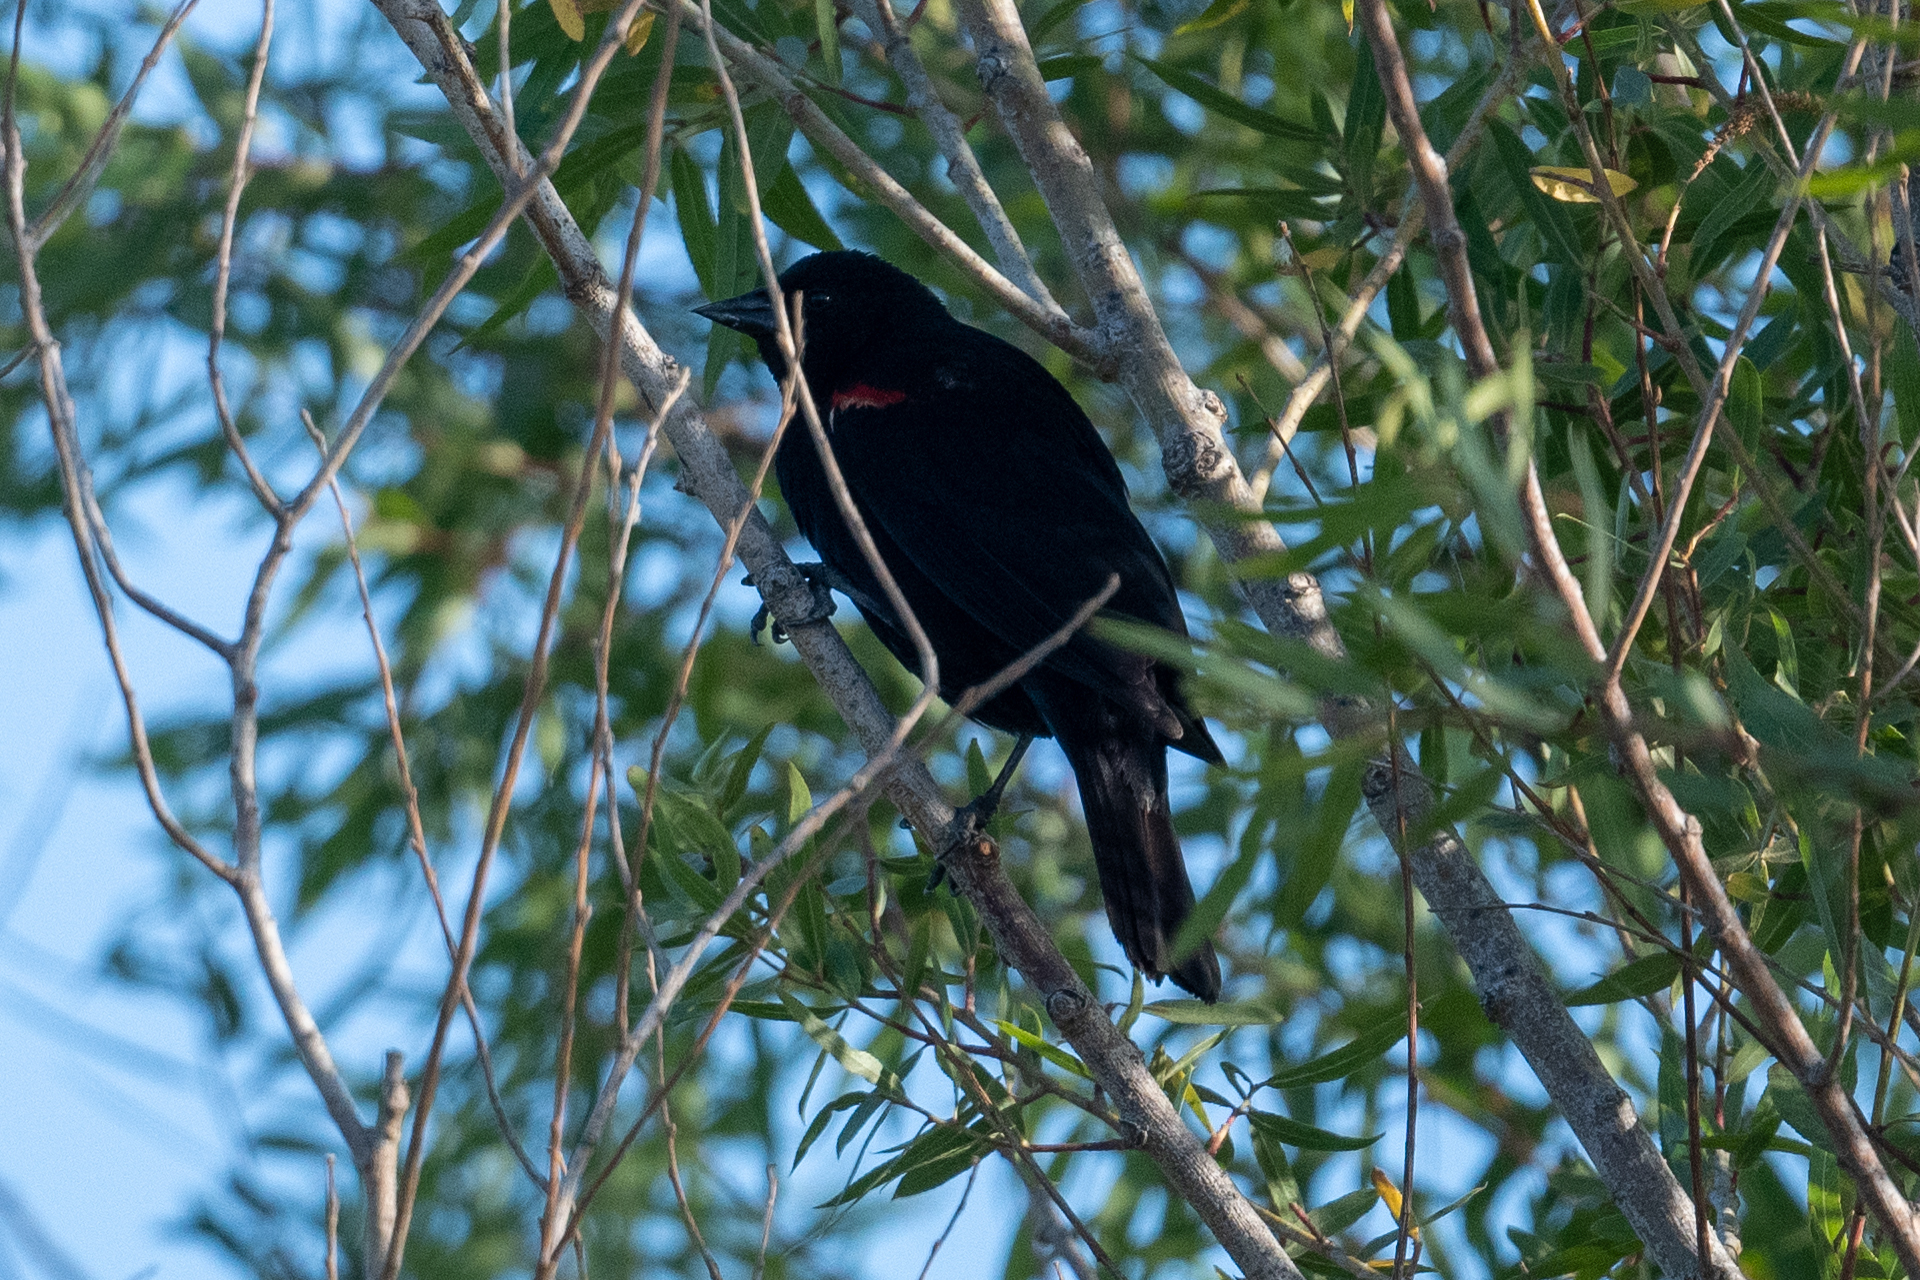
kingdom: Animalia
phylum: Chordata
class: Aves
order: Passeriformes
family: Icteridae
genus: Agelaius
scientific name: Agelaius phoeniceus
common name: Red-winged blackbird
